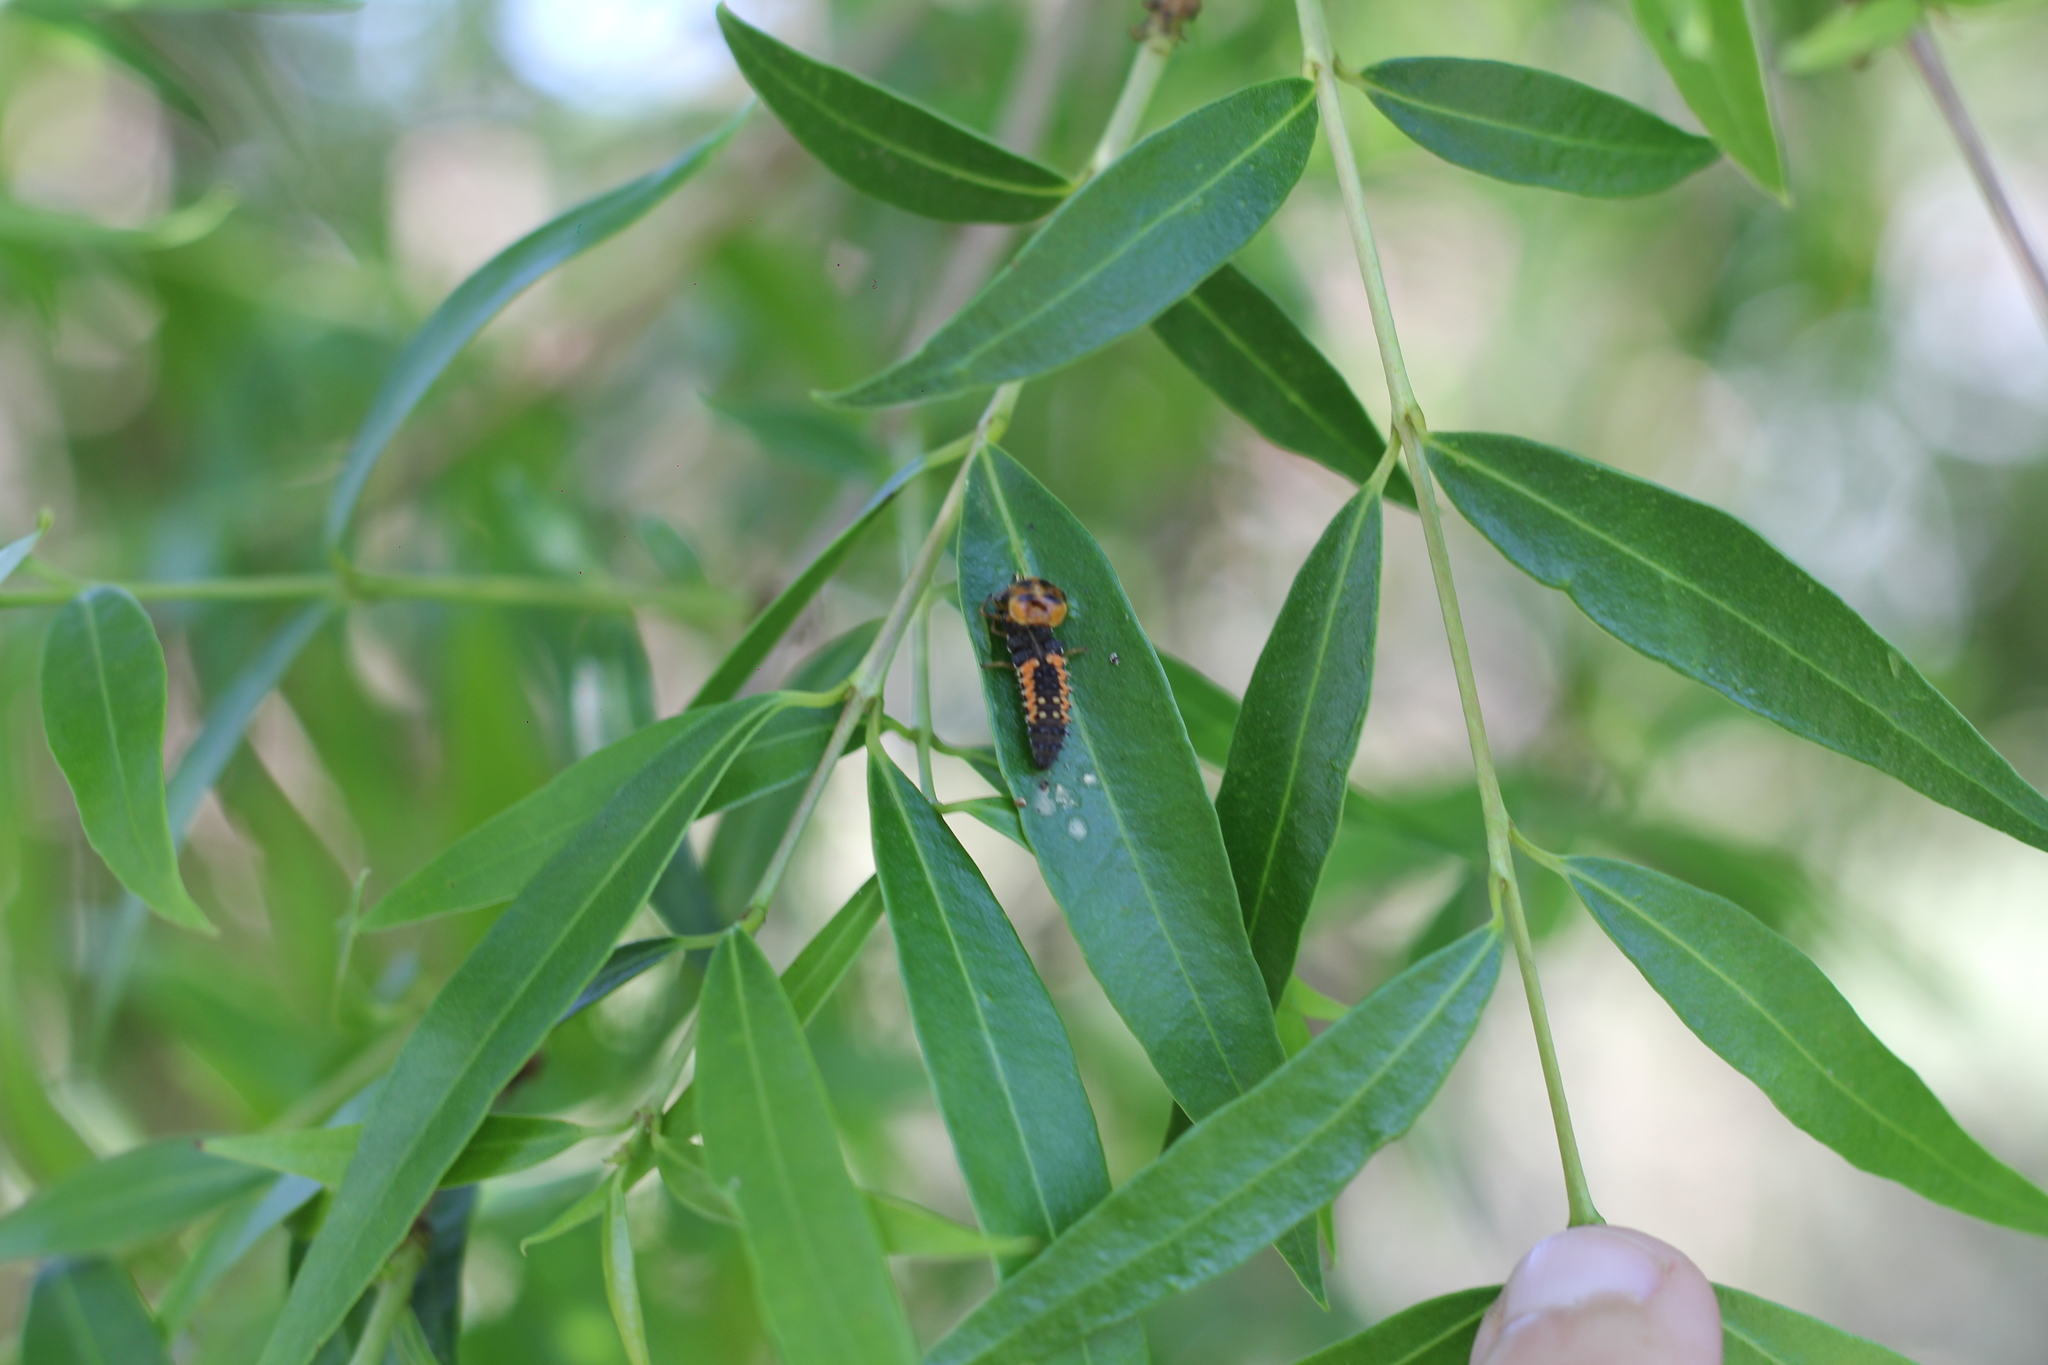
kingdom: Animalia
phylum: Arthropoda
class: Insecta
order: Coleoptera
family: Coccinellidae
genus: Harmonia
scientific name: Harmonia axyridis
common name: Harlequin ladybird
